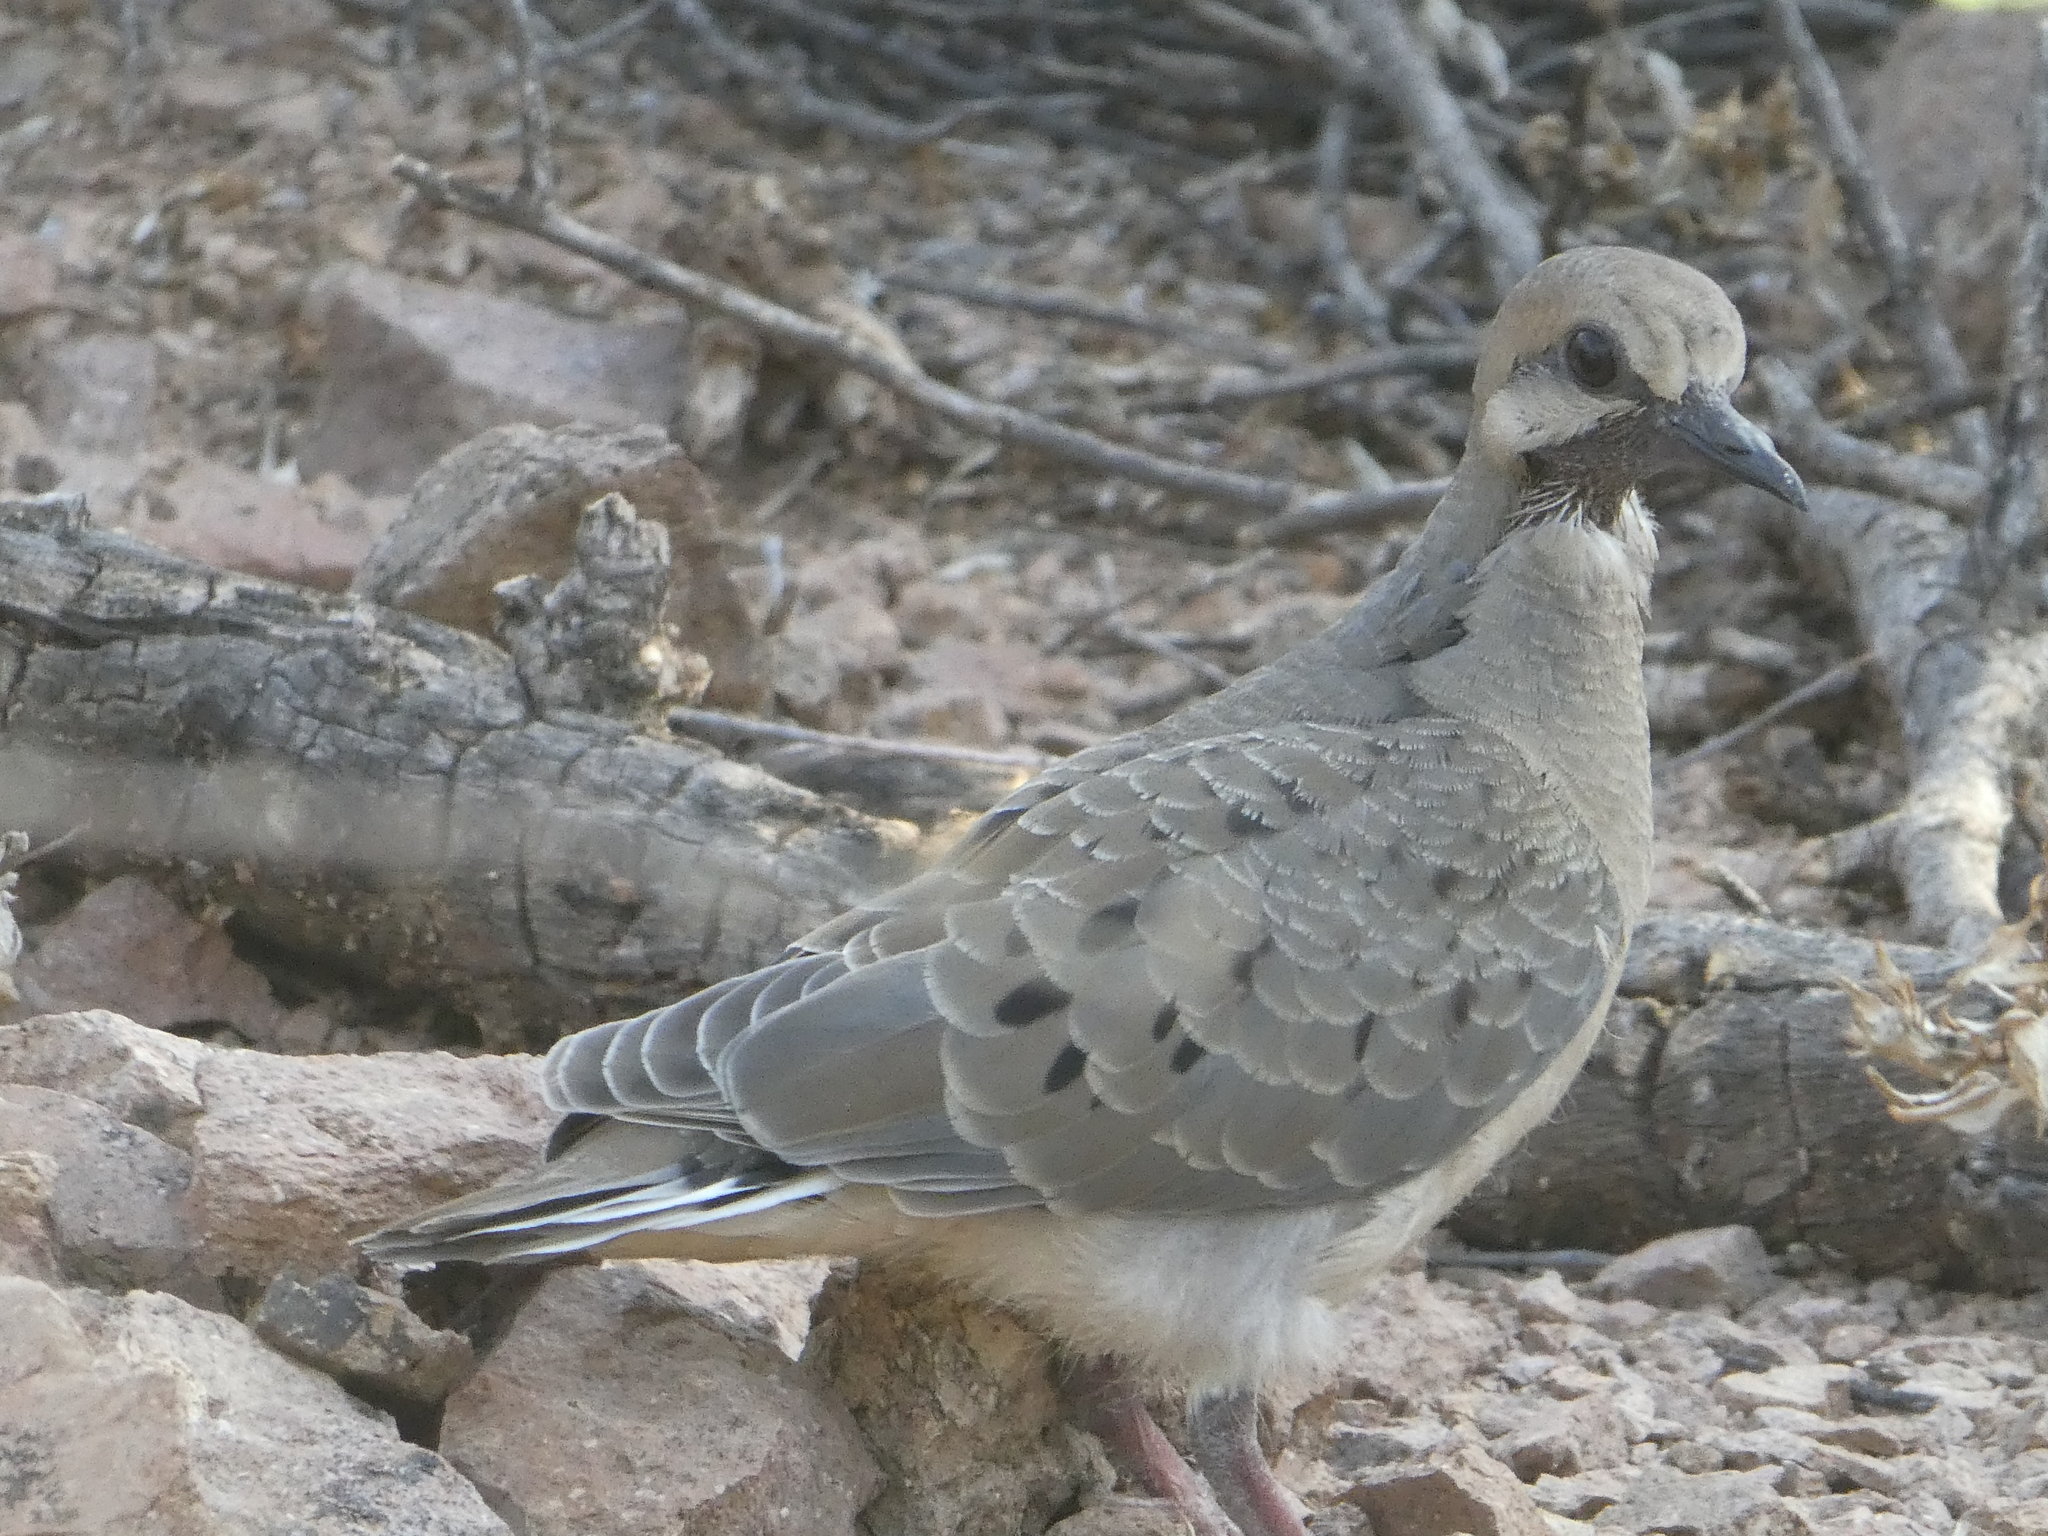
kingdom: Animalia
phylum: Chordata
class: Aves
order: Columbiformes
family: Columbidae
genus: Zenaida
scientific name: Zenaida macroura
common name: Mourning dove
